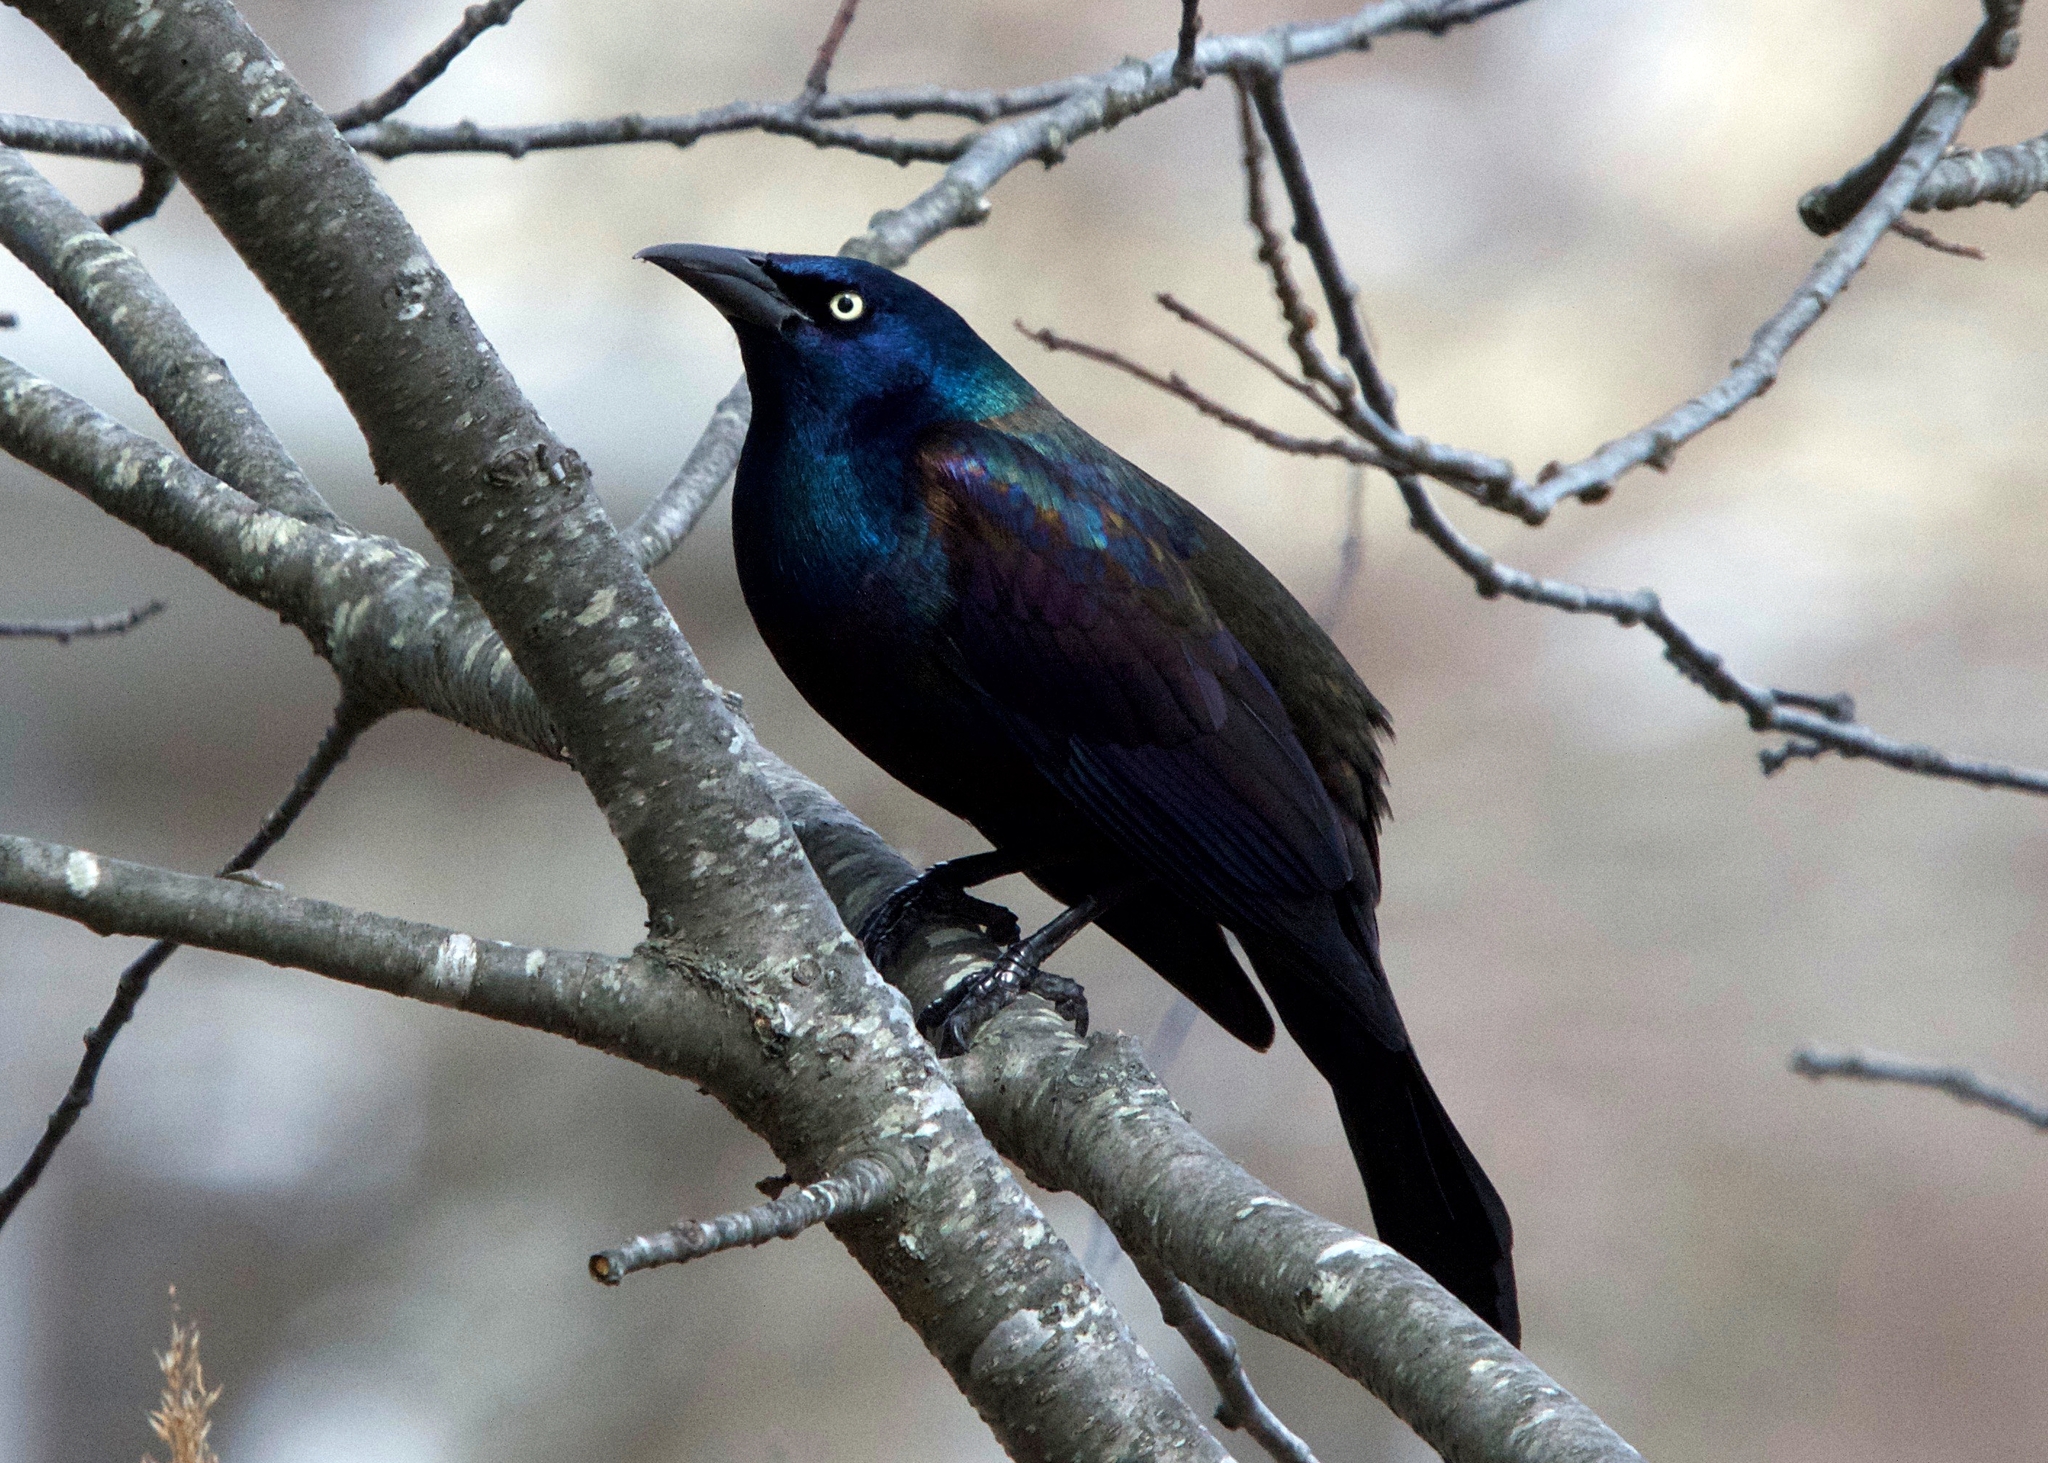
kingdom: Animalia
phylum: Chordata
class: Aves
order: Passeriformes
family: Icteridae
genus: Quiscalus
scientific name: Quiscalus quiscula
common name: Common grackle
